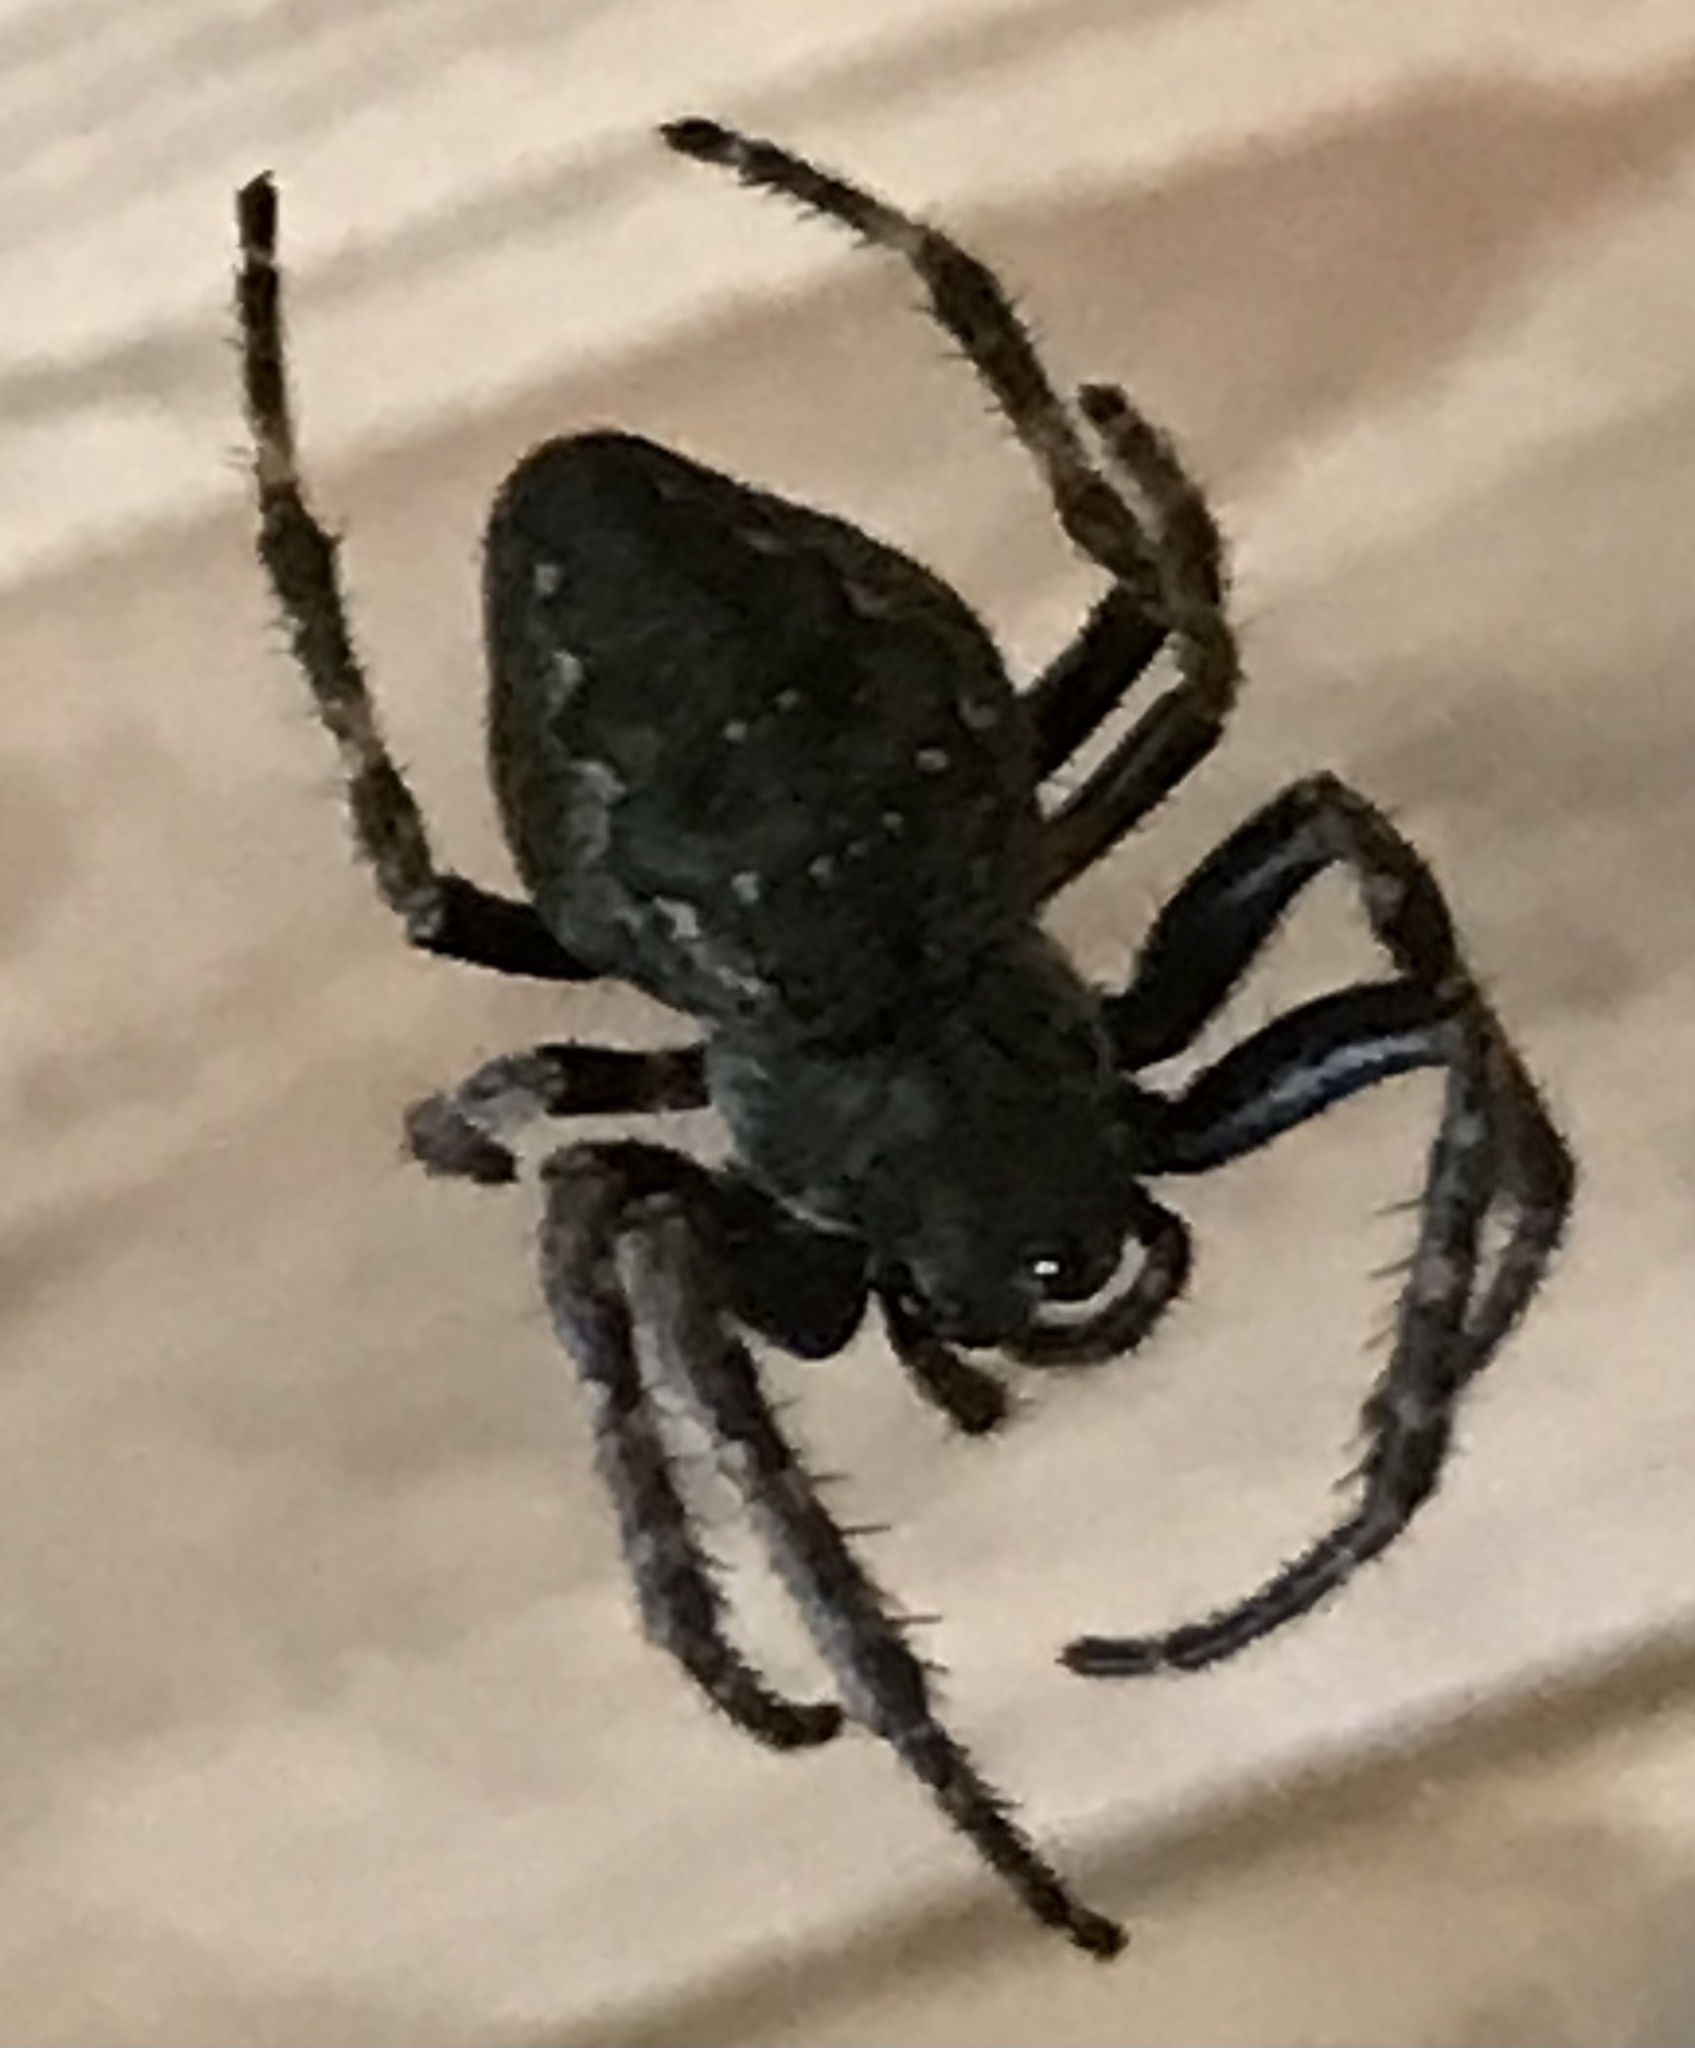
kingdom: Animalia
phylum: Arthropoda
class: Arachnida
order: Araneae
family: Araneidae
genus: Nuctenea
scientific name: Nuctenea umbratica
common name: Toad spider
